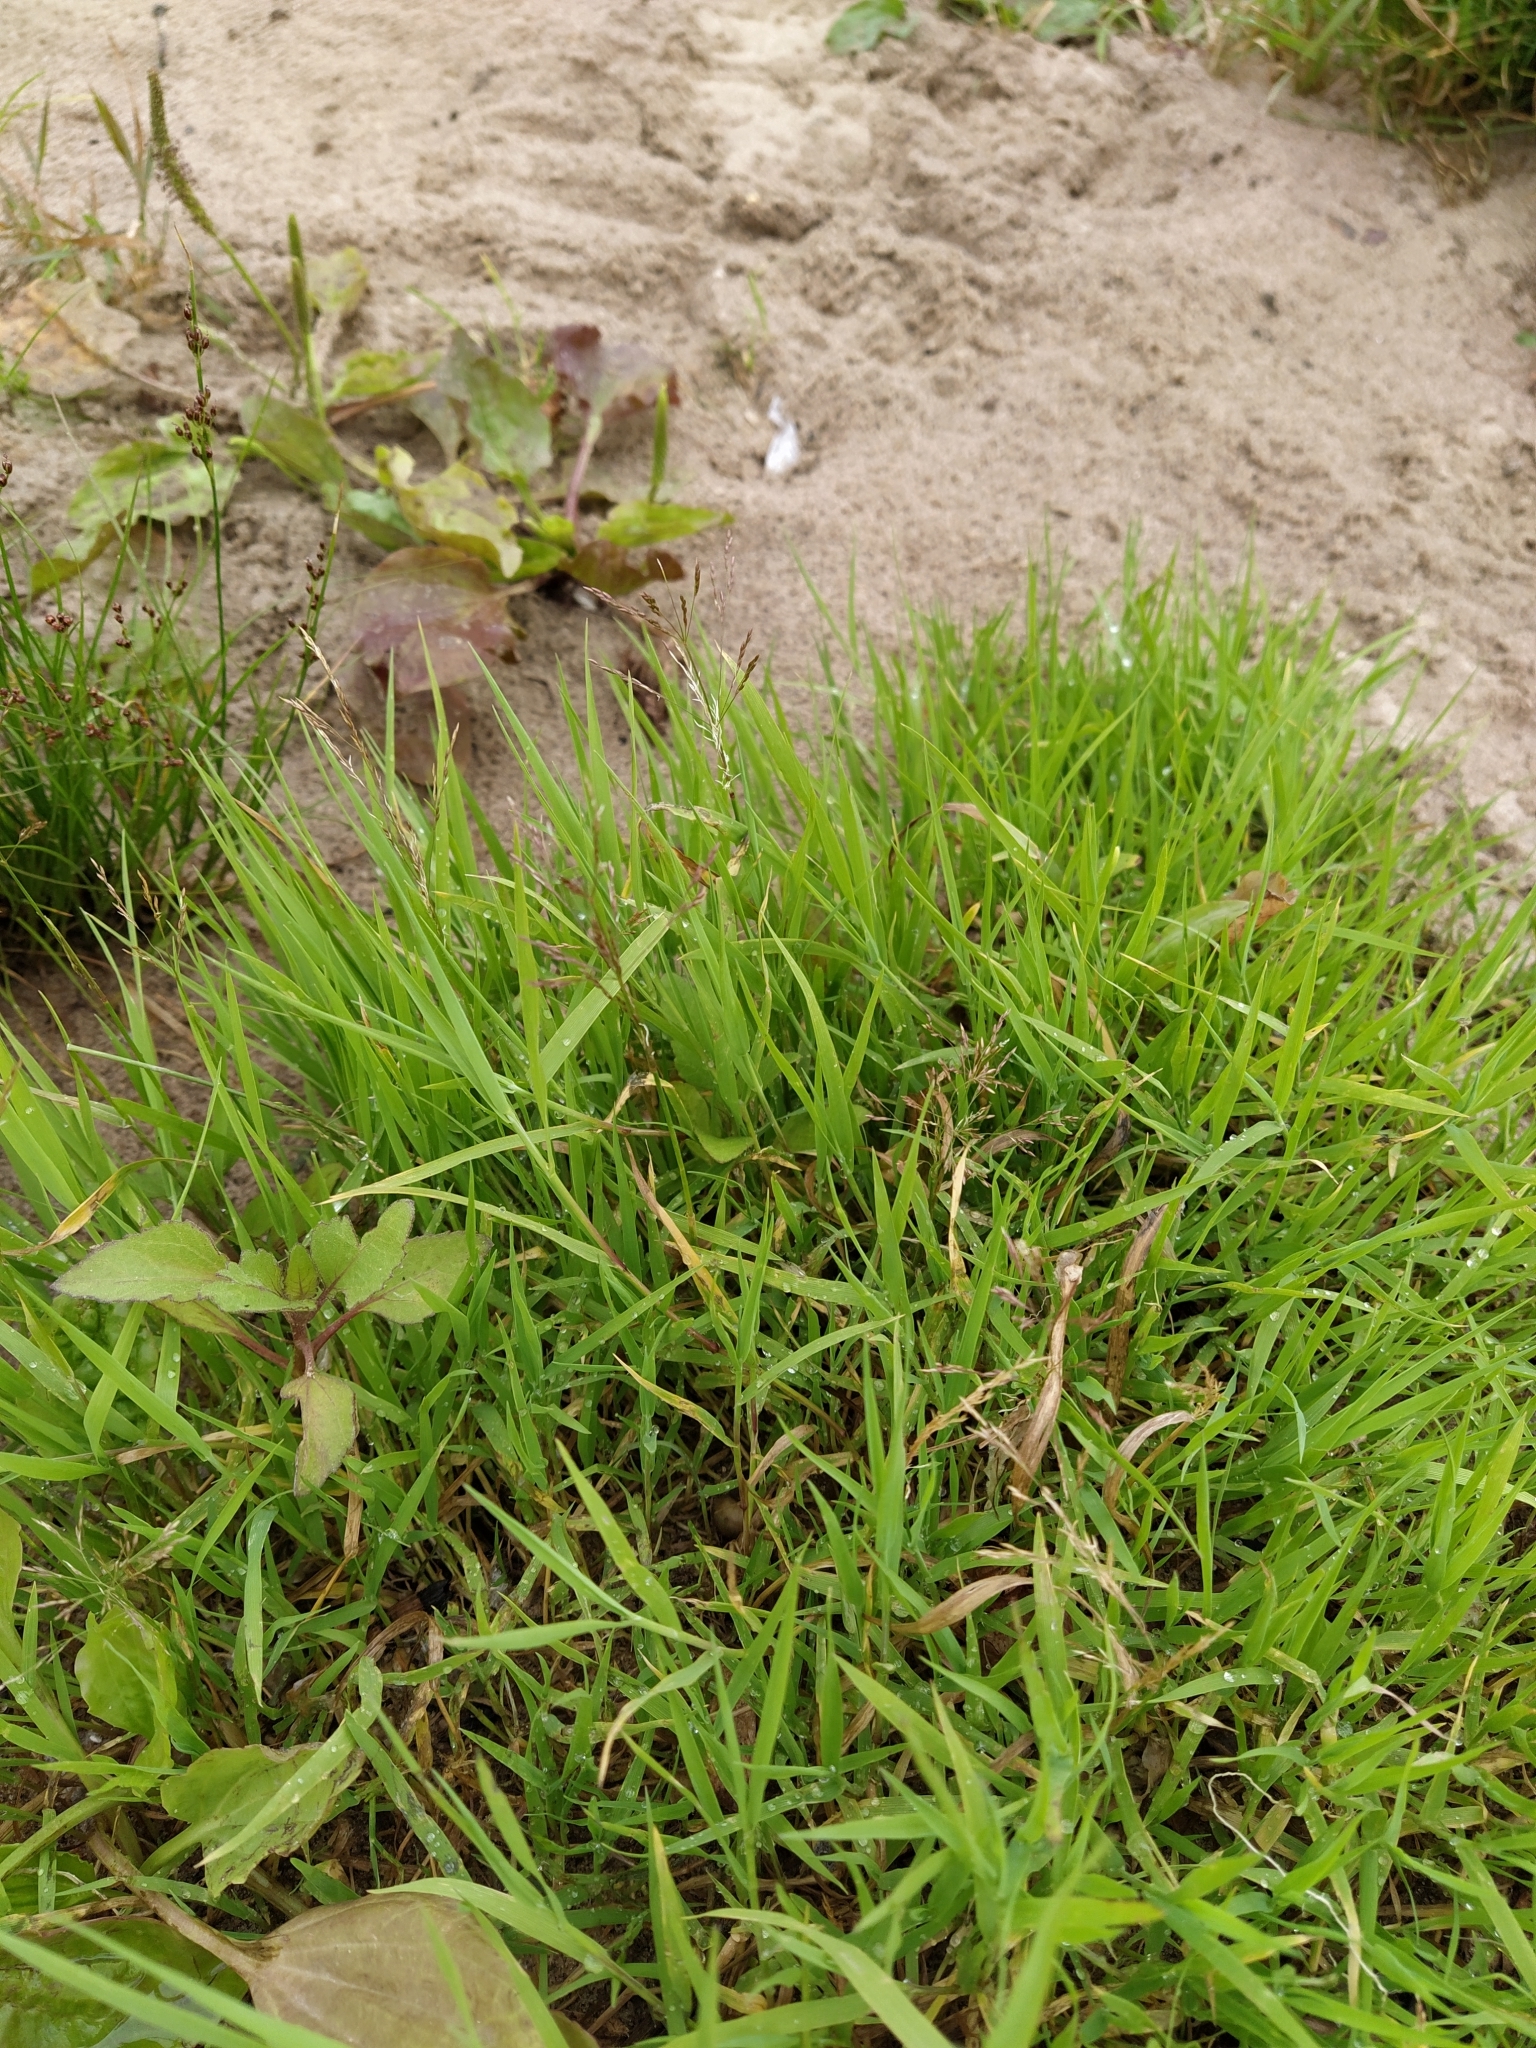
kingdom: Plantae
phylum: Tracheophyta
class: Liliopsida
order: Poales
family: Poaceae
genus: Agrostis
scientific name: Agrostis stolonifera
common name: Creeping bentgrass
